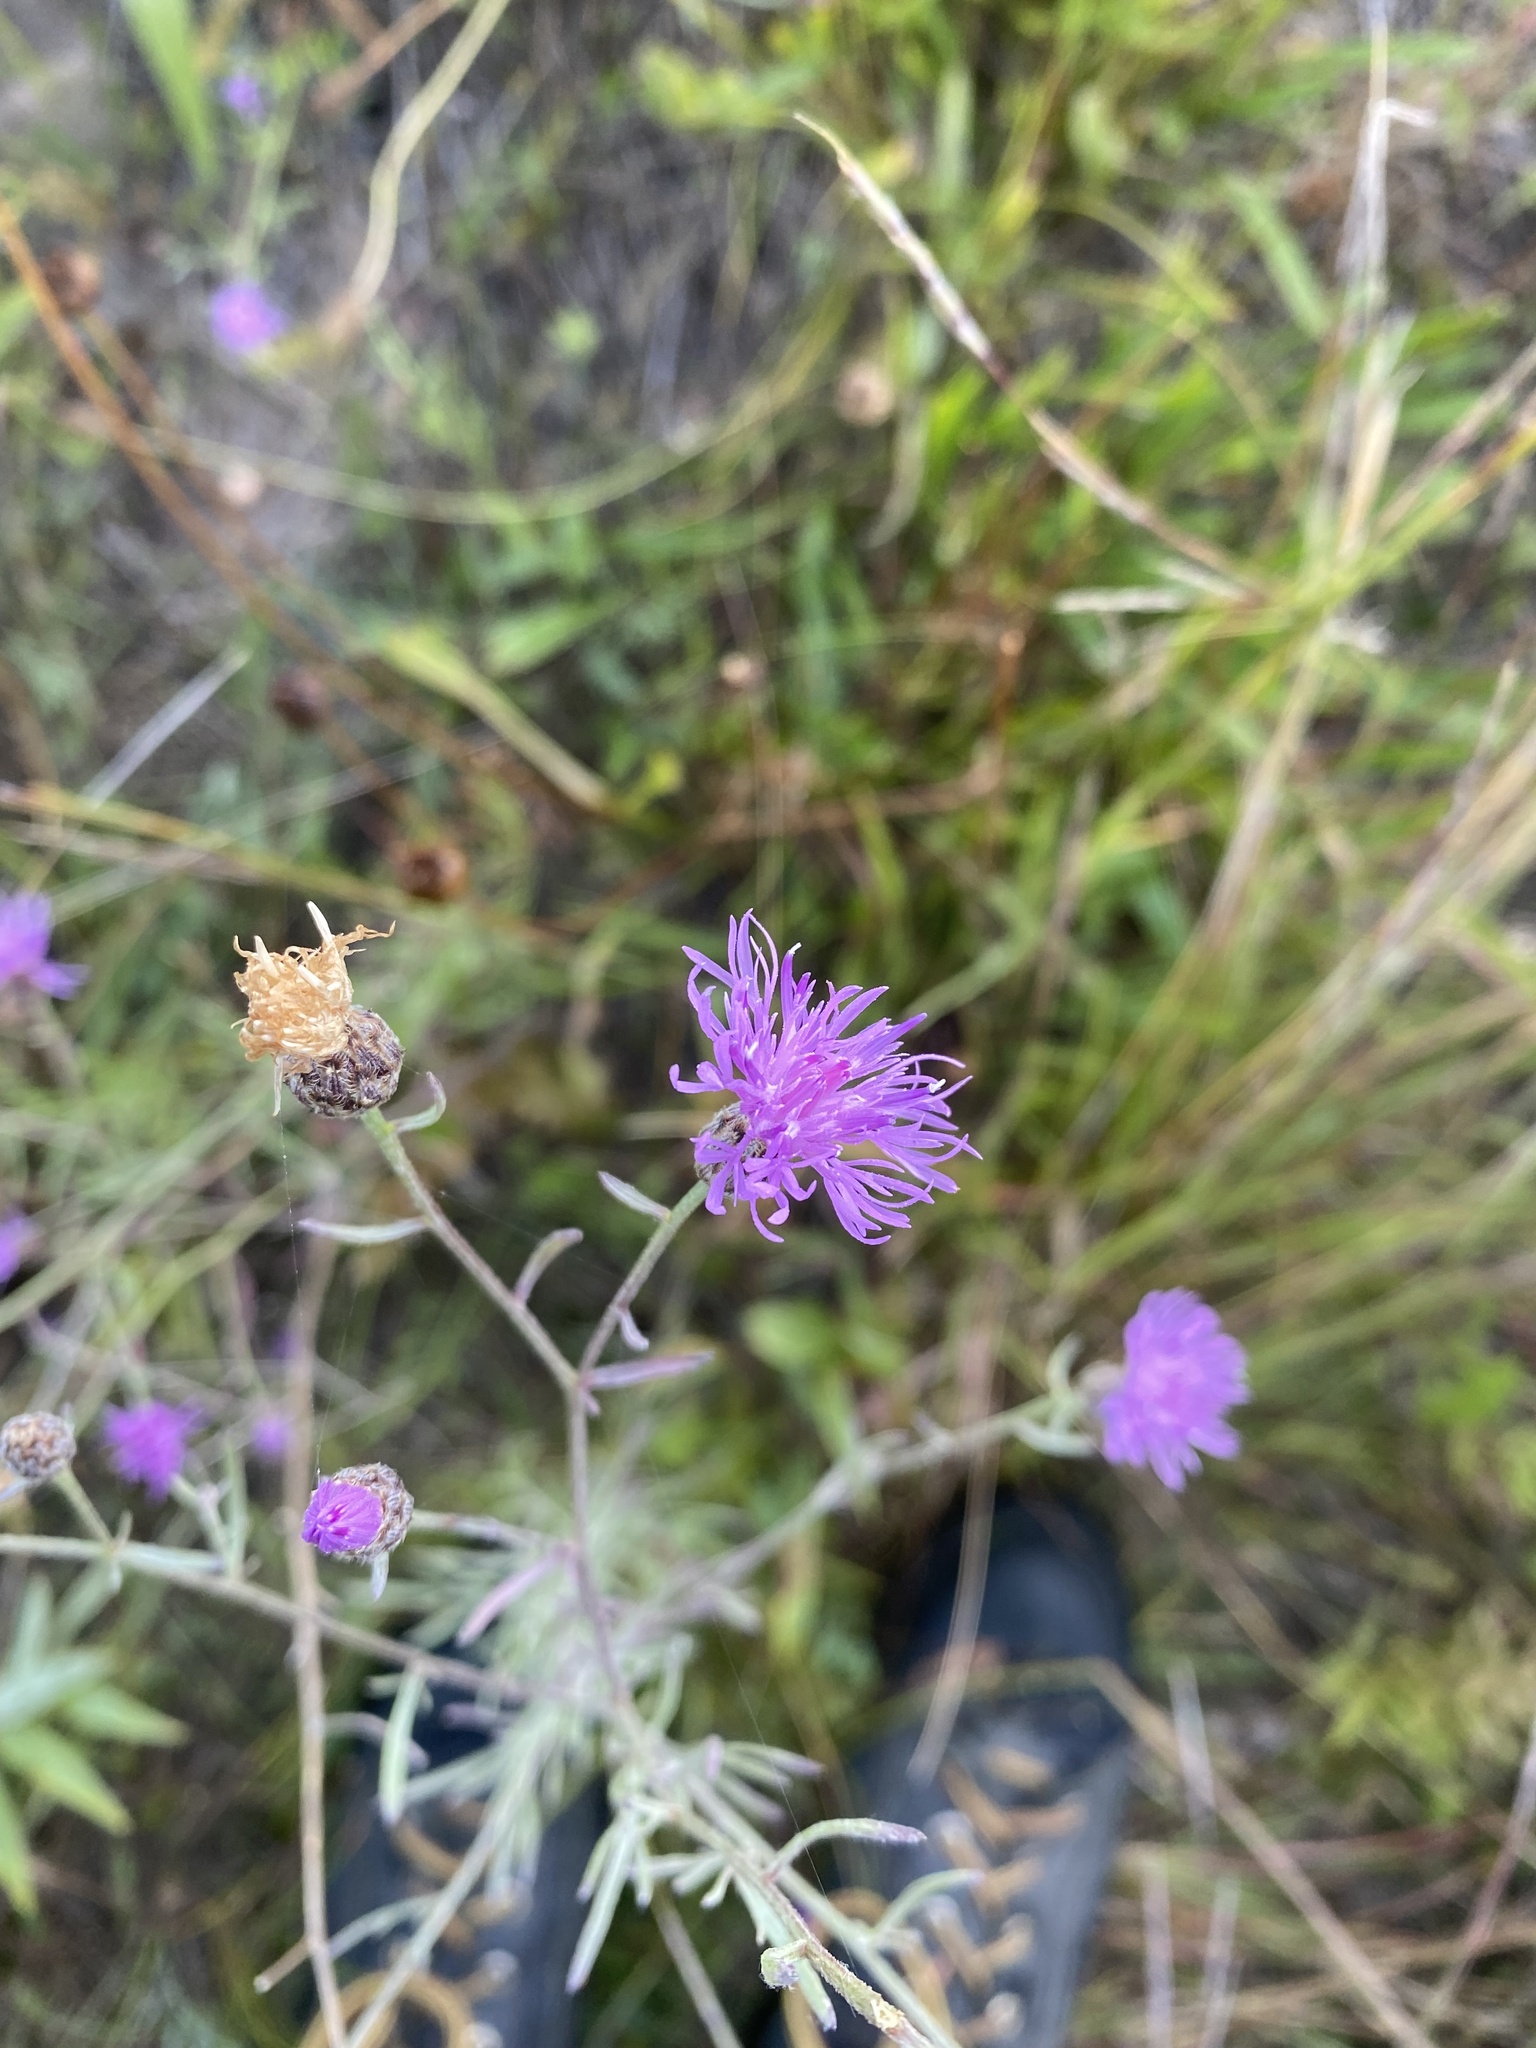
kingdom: Plantae
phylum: Tracheophyta
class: Magnoliopsida
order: Asterales
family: Asteraceae
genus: Centaurea
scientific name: Centaurea stoebe
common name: Spotted knapweed
